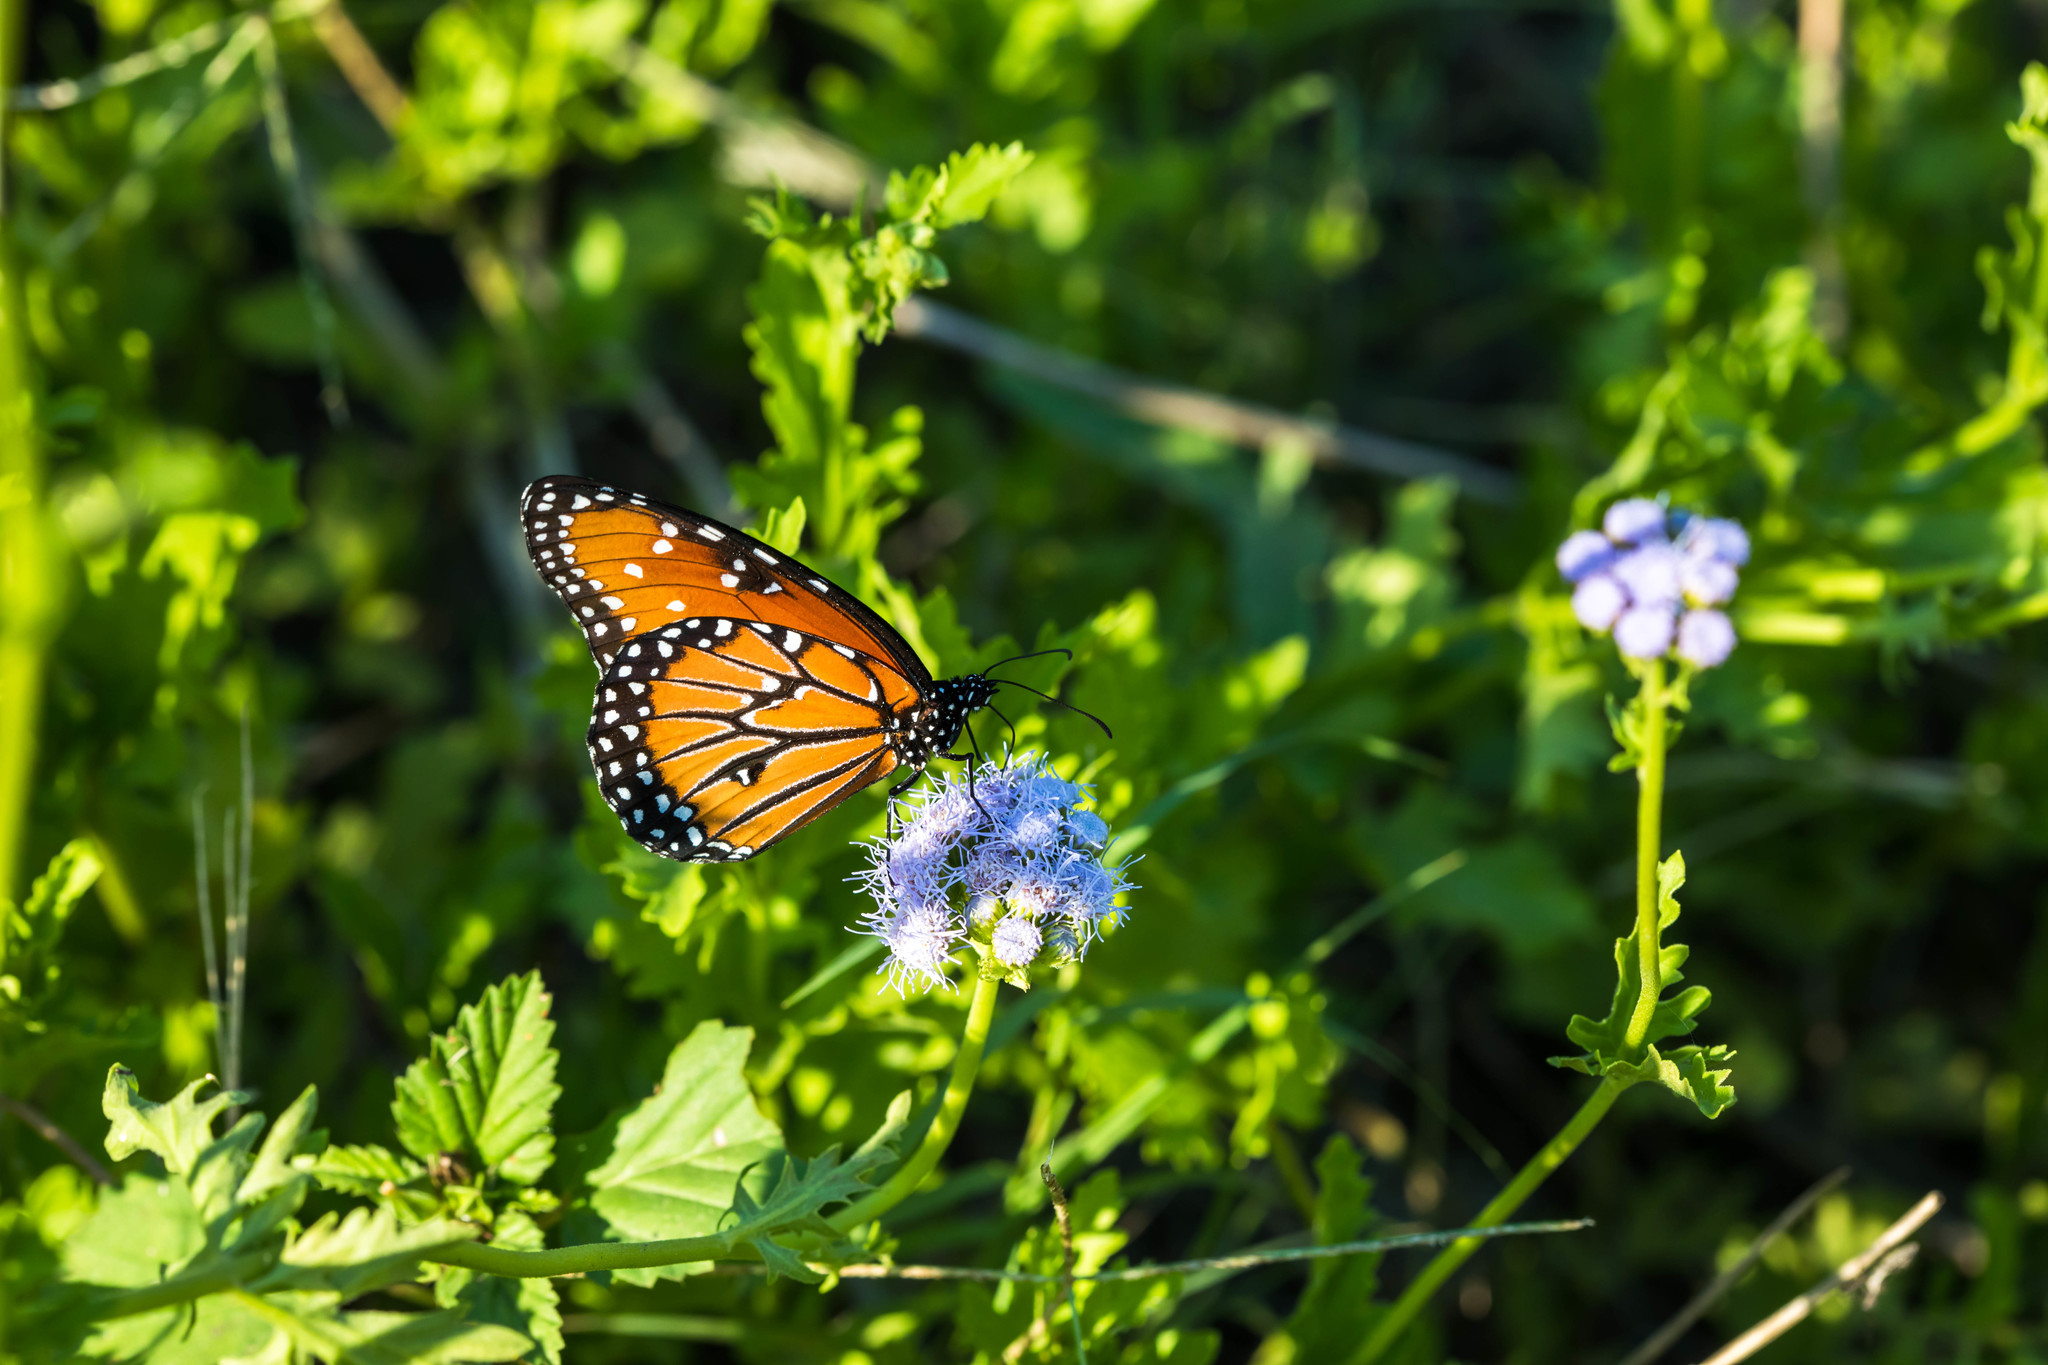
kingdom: Animalia
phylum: Arthropoda
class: Insecta
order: Lepidoptera
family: Nymphalidae
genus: Danaus
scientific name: Danaus gilippus
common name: Queen
